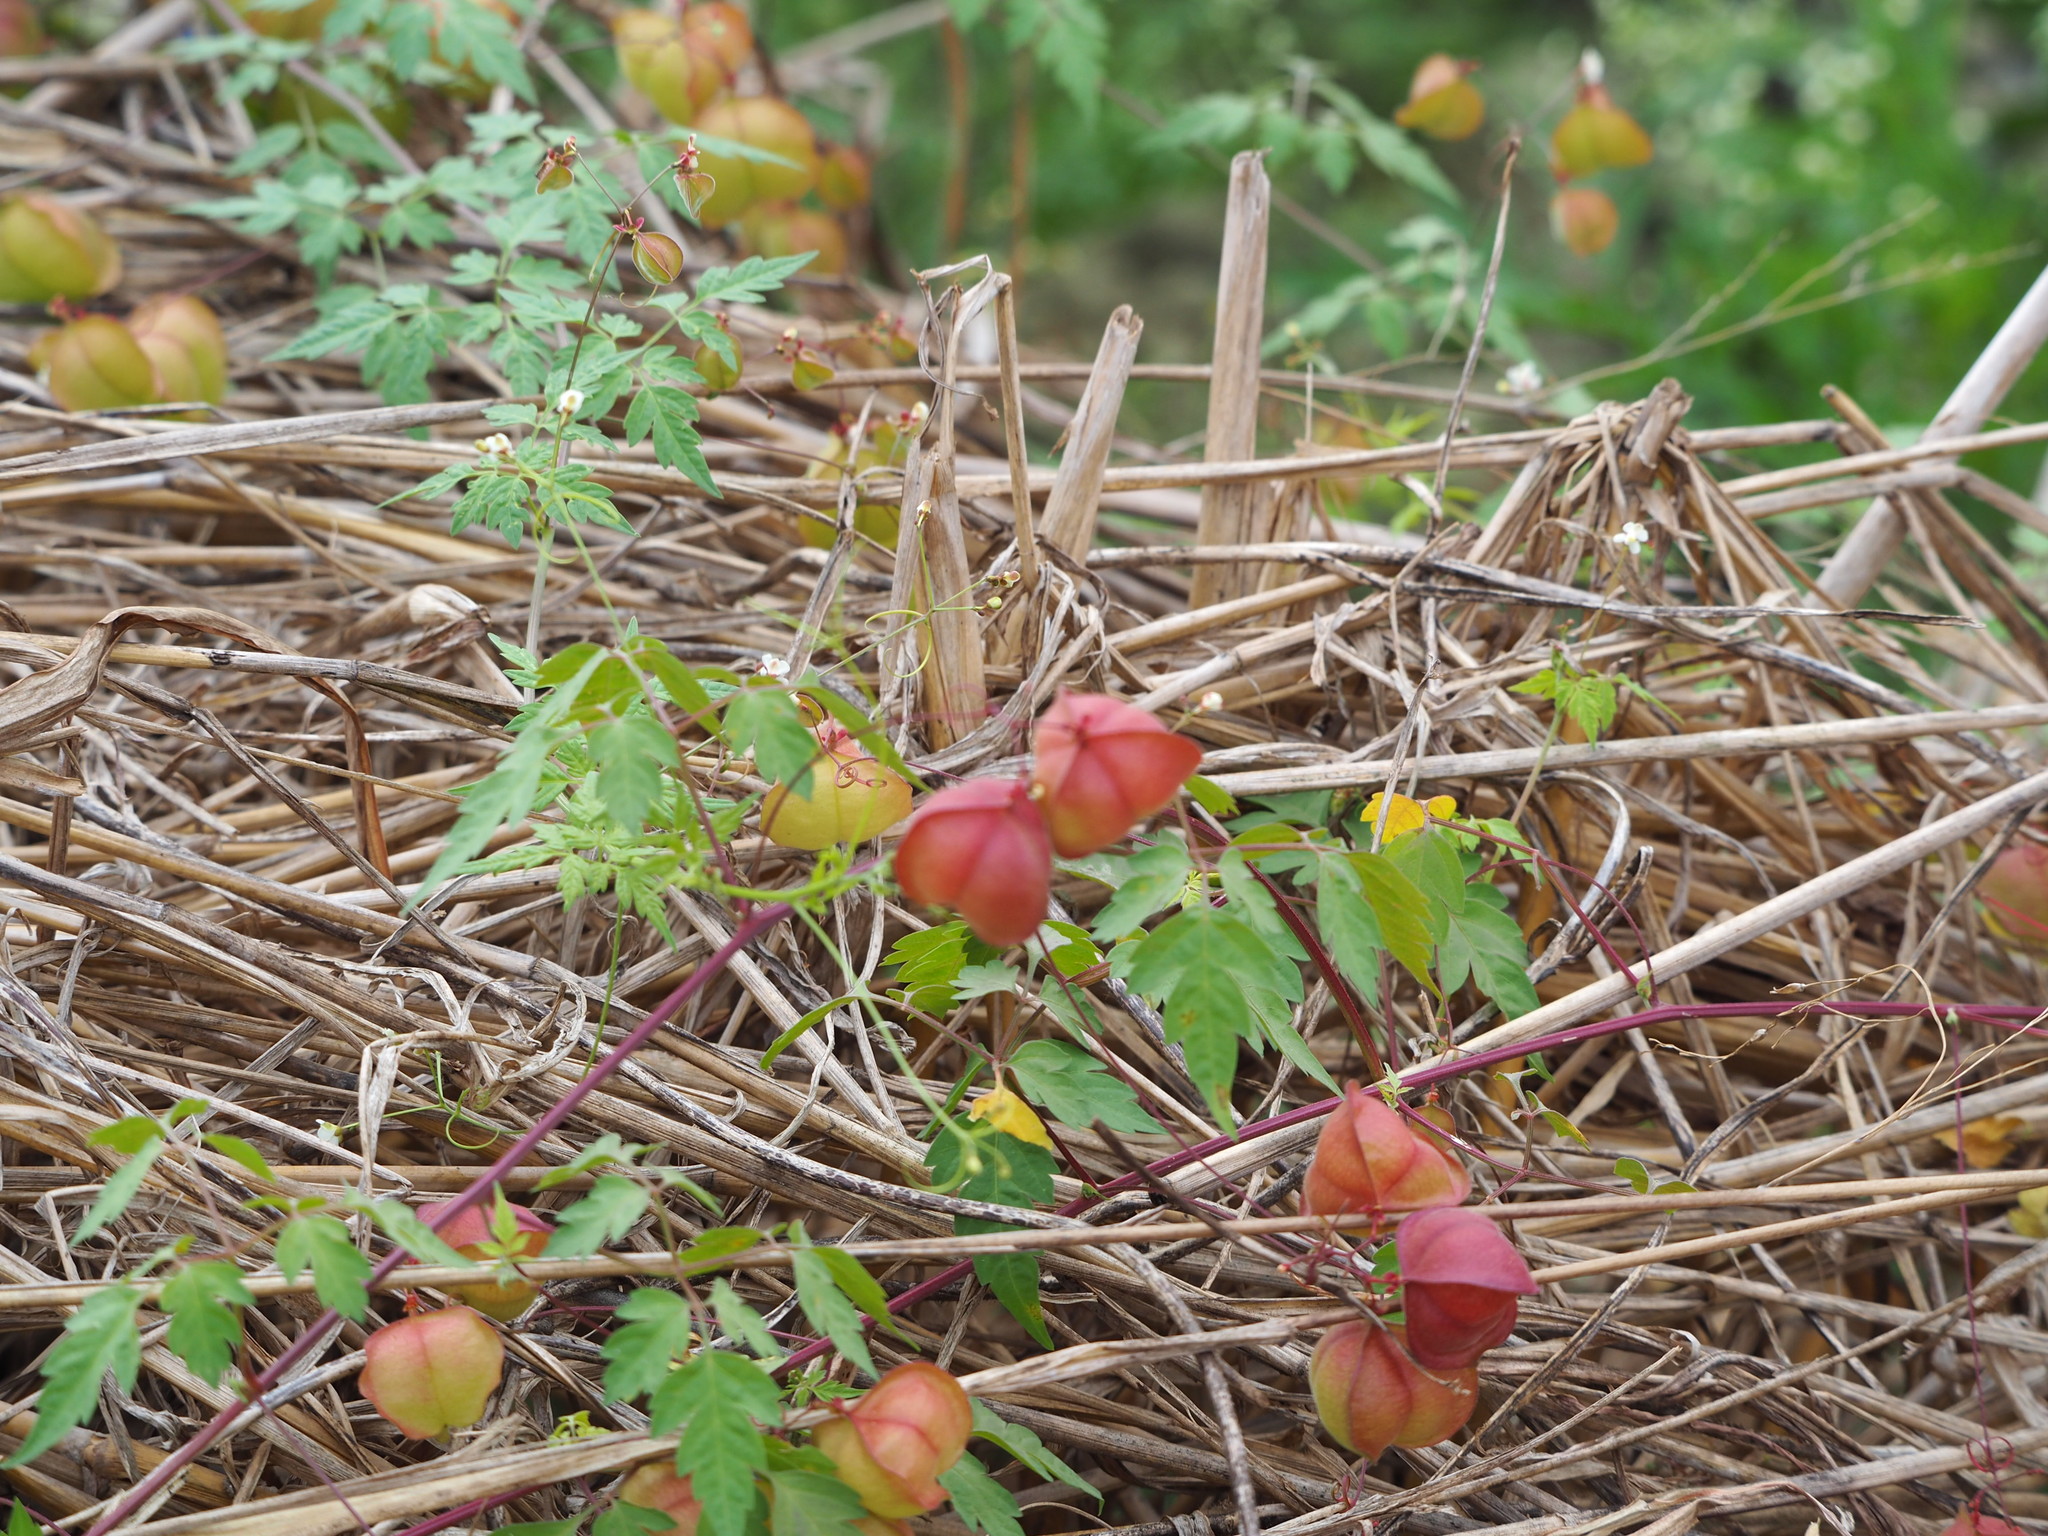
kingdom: Plantae
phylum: Tracheophyta
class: Magnoliopsida
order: Sapindales
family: Sapindaceae
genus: Cardiospermum
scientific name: Cardiospermum halicacabum
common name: Balloon vine
